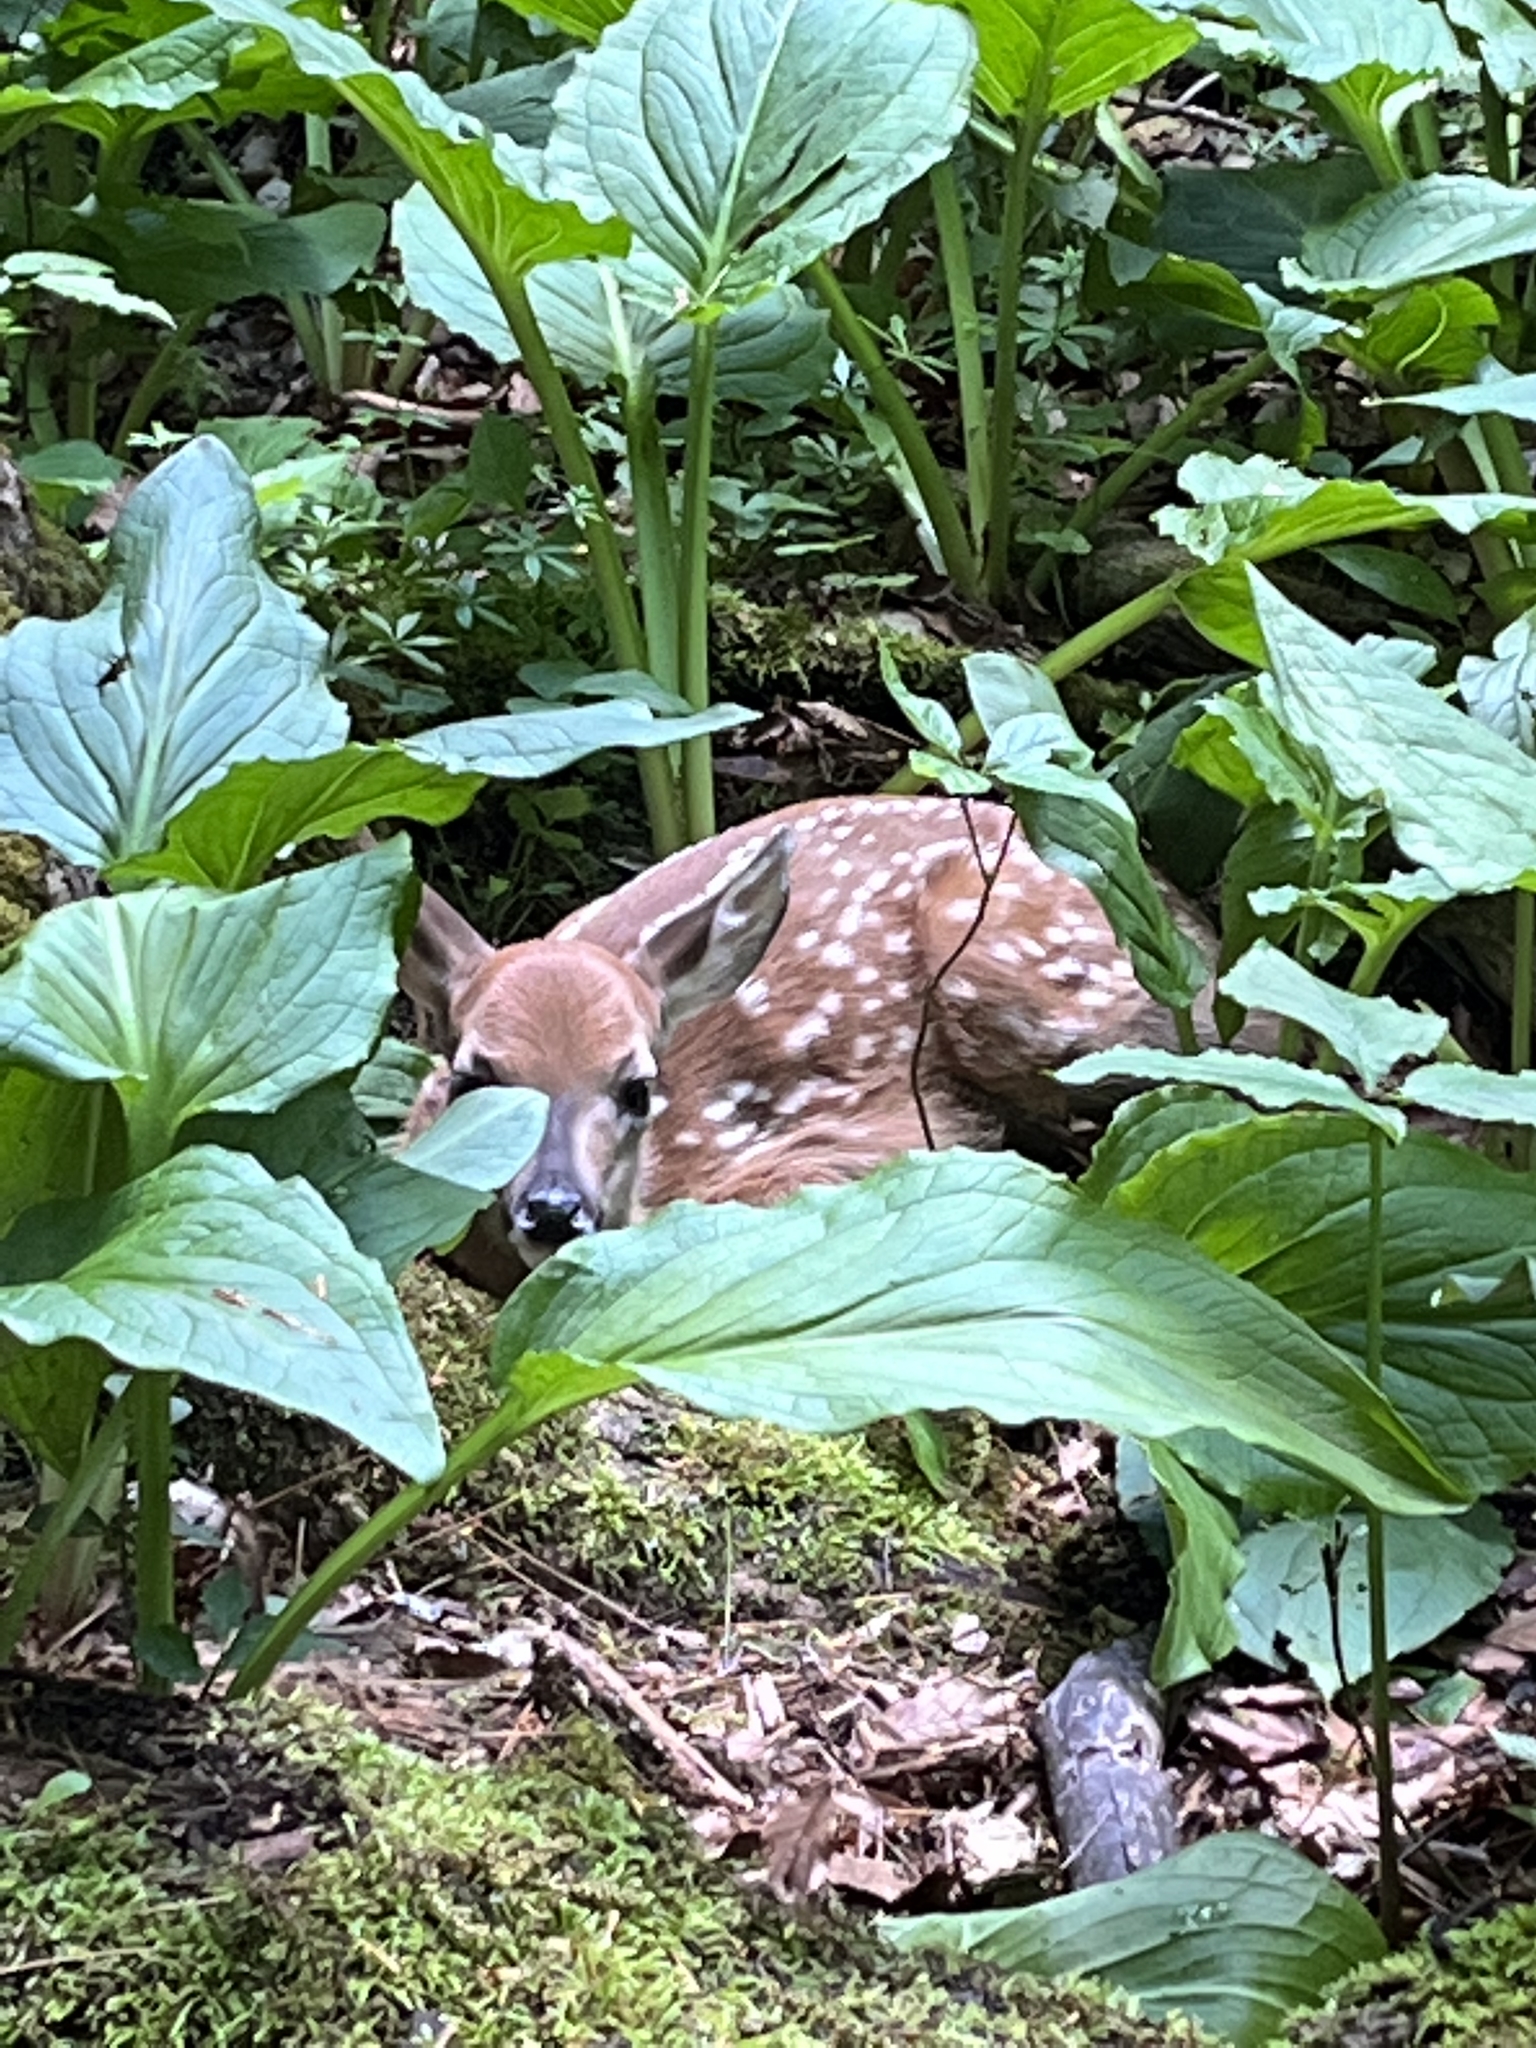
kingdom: Animalia
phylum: Chordata
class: Mammalia
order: Artiodactyla
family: Cervidae
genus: Odocoileus
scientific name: Odocoileus virginianus
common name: White-tailed deer
